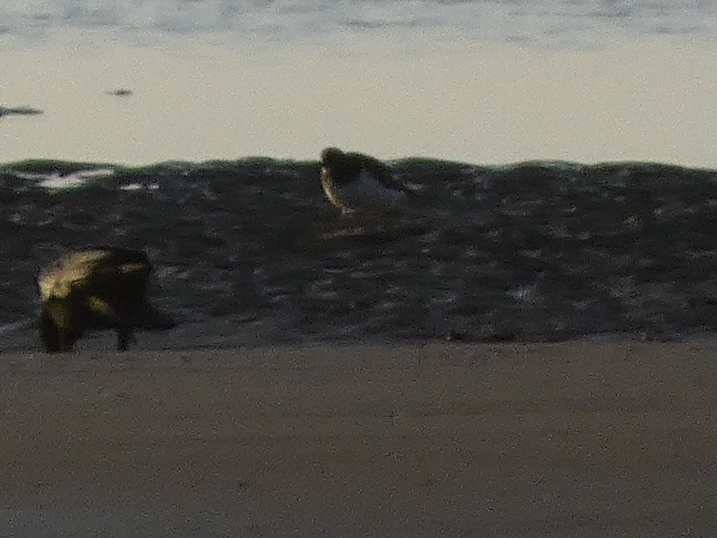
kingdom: Animalia
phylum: Chordata
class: Aves
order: Charadriiformes
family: Scolopacidae
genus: Arenaria
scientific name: Arenaria interpres
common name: Ruddy turnstone
